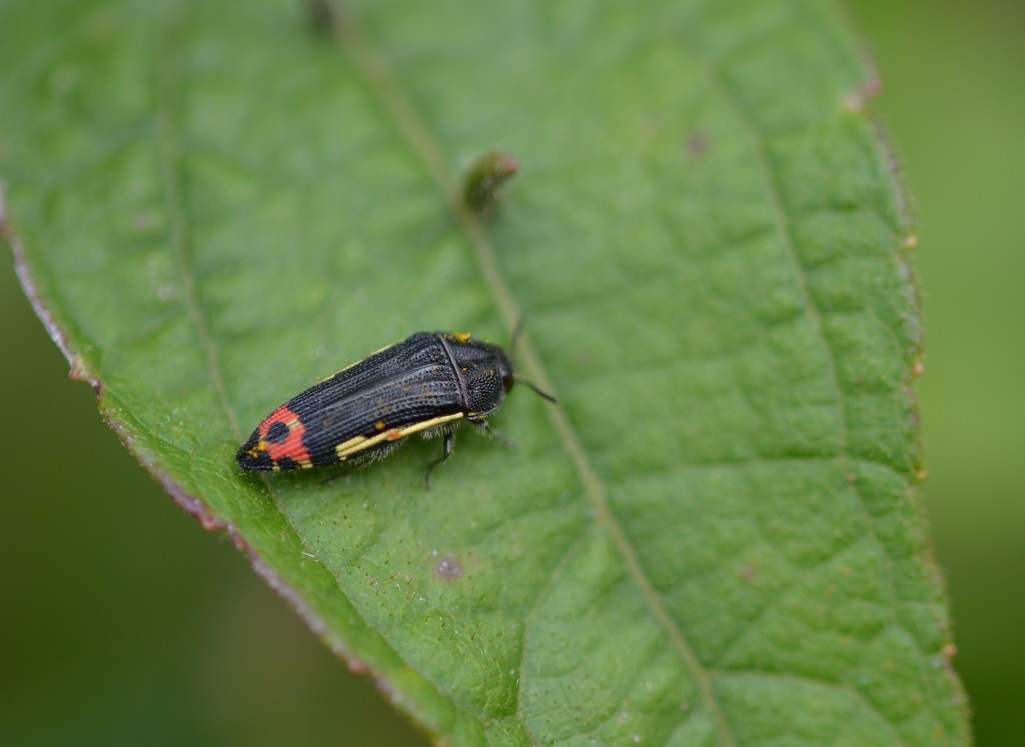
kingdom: Animalia
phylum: Arthropoda
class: Insecta
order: Coleoptera
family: Buprestidae
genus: Acmaeodera
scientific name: Acmaeodera flavomarginata
